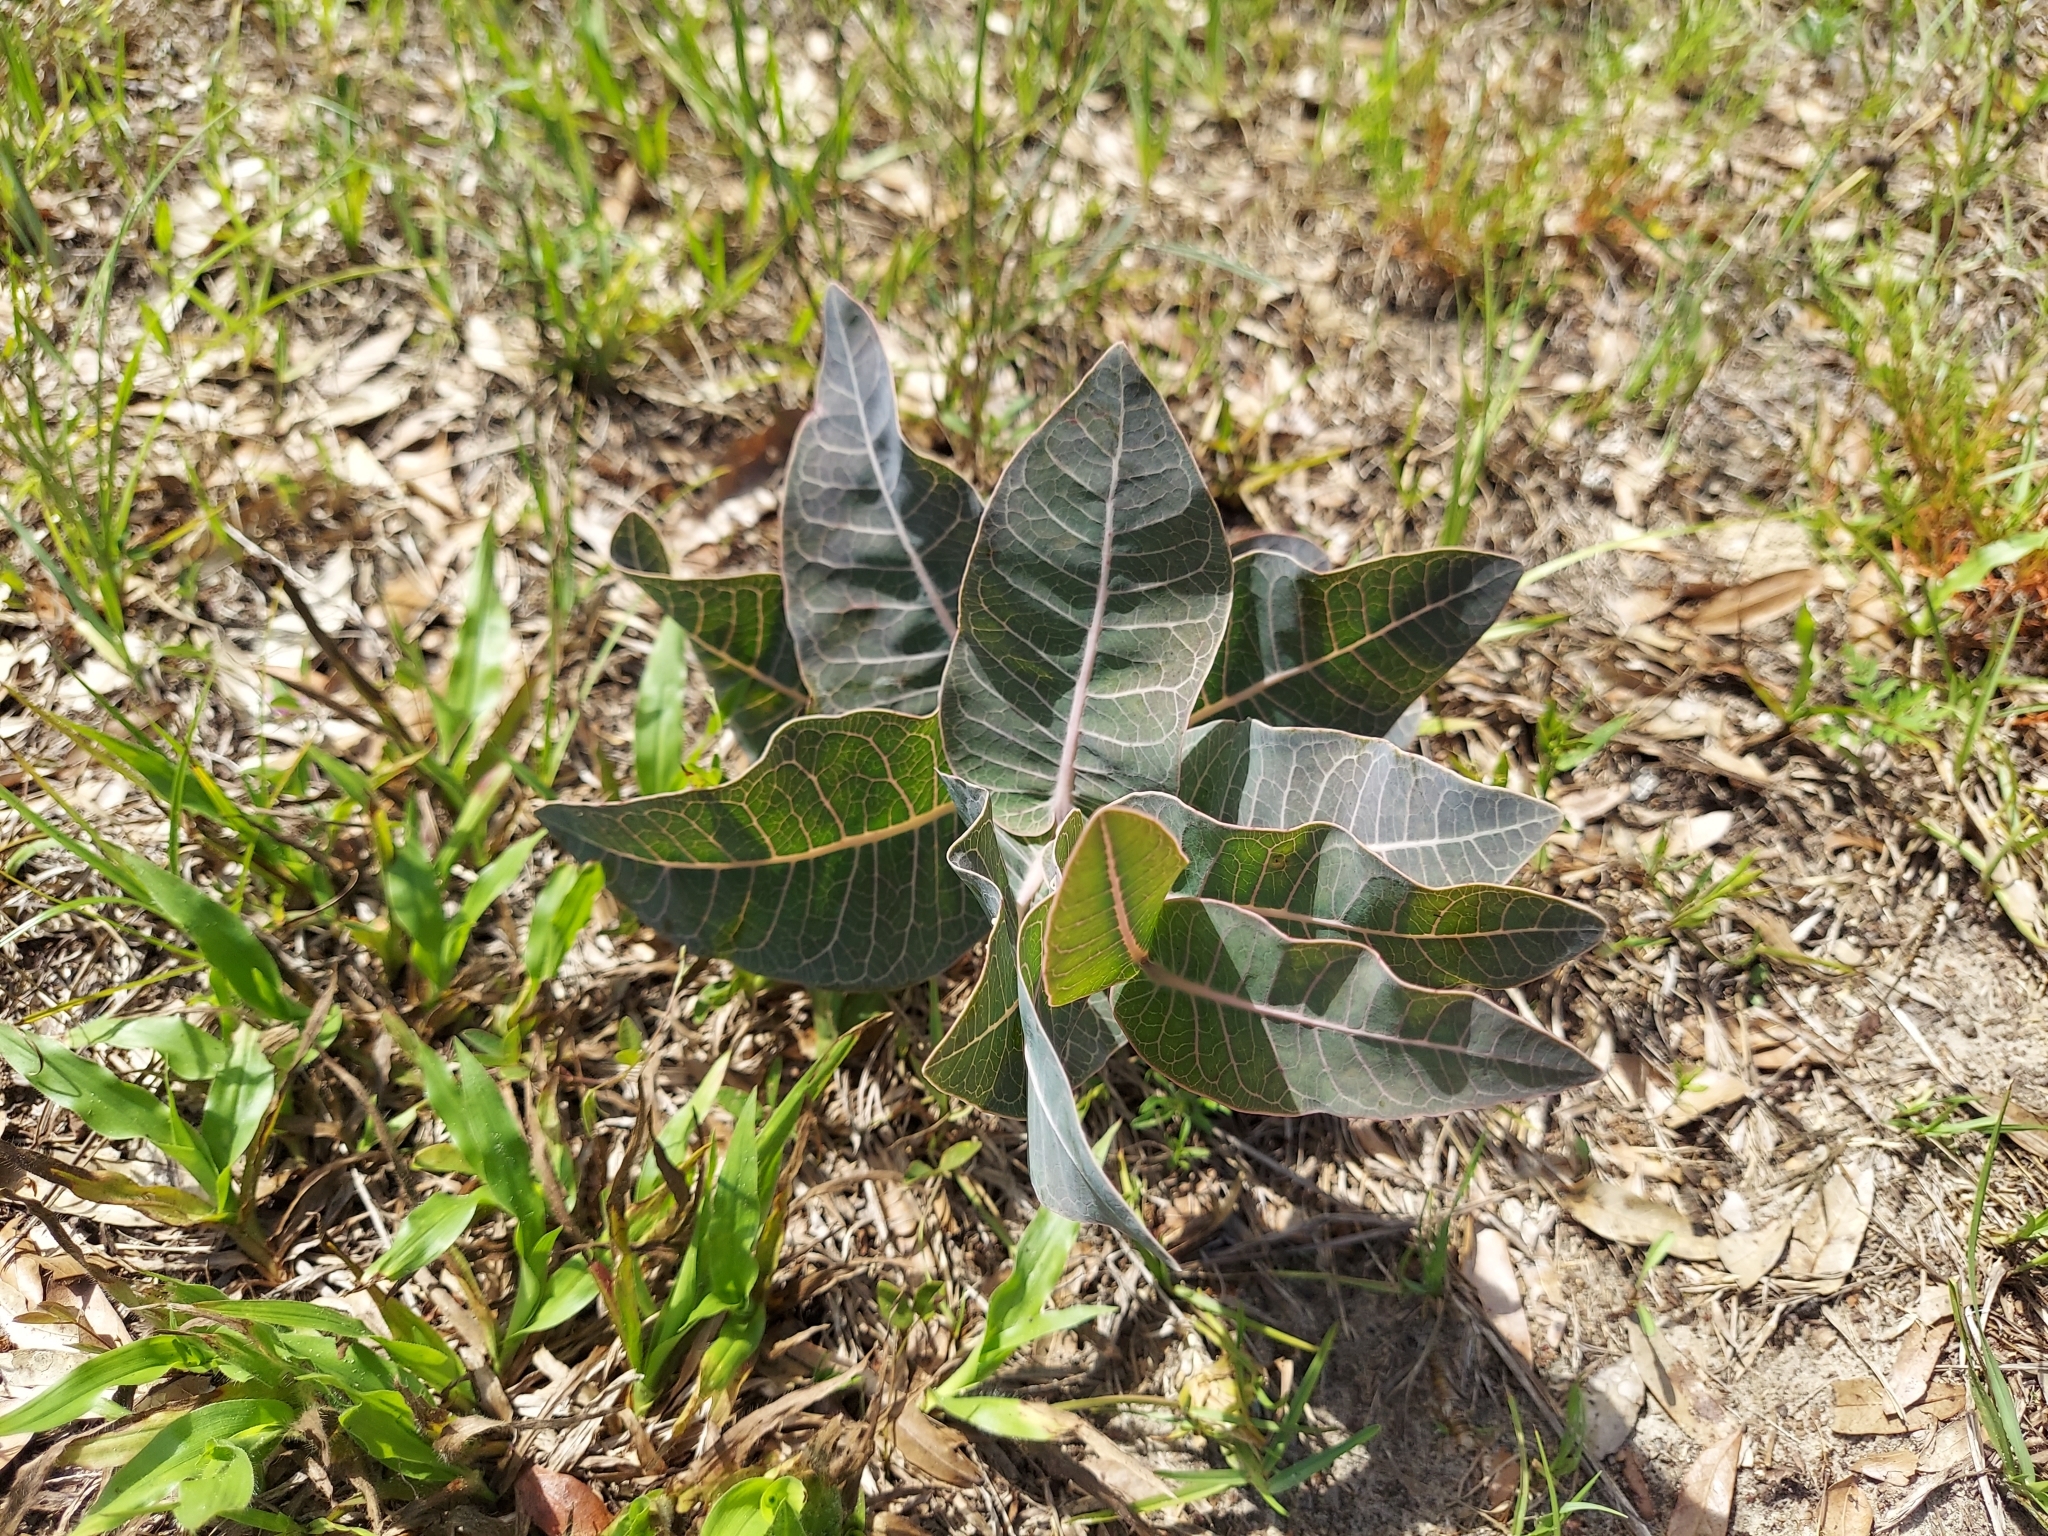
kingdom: Plantae
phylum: Tracheophyta
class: Magnoliopsida
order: Gentianales
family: Apocynaceae
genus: Asclepias
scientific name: Asclepias humistrata
